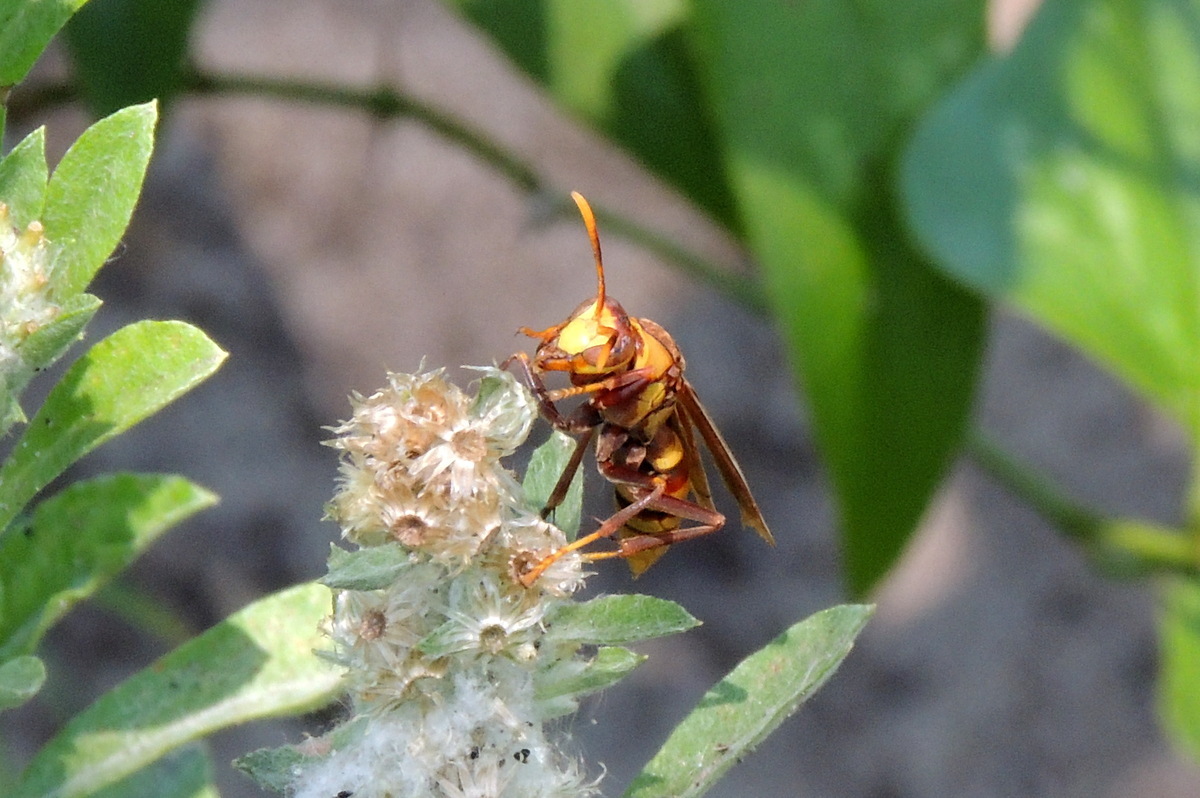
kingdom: Animalia
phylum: Arthropoda
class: Insecta
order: Hymenoptera
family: Eumenidae
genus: Polistes
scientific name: Polistes major
